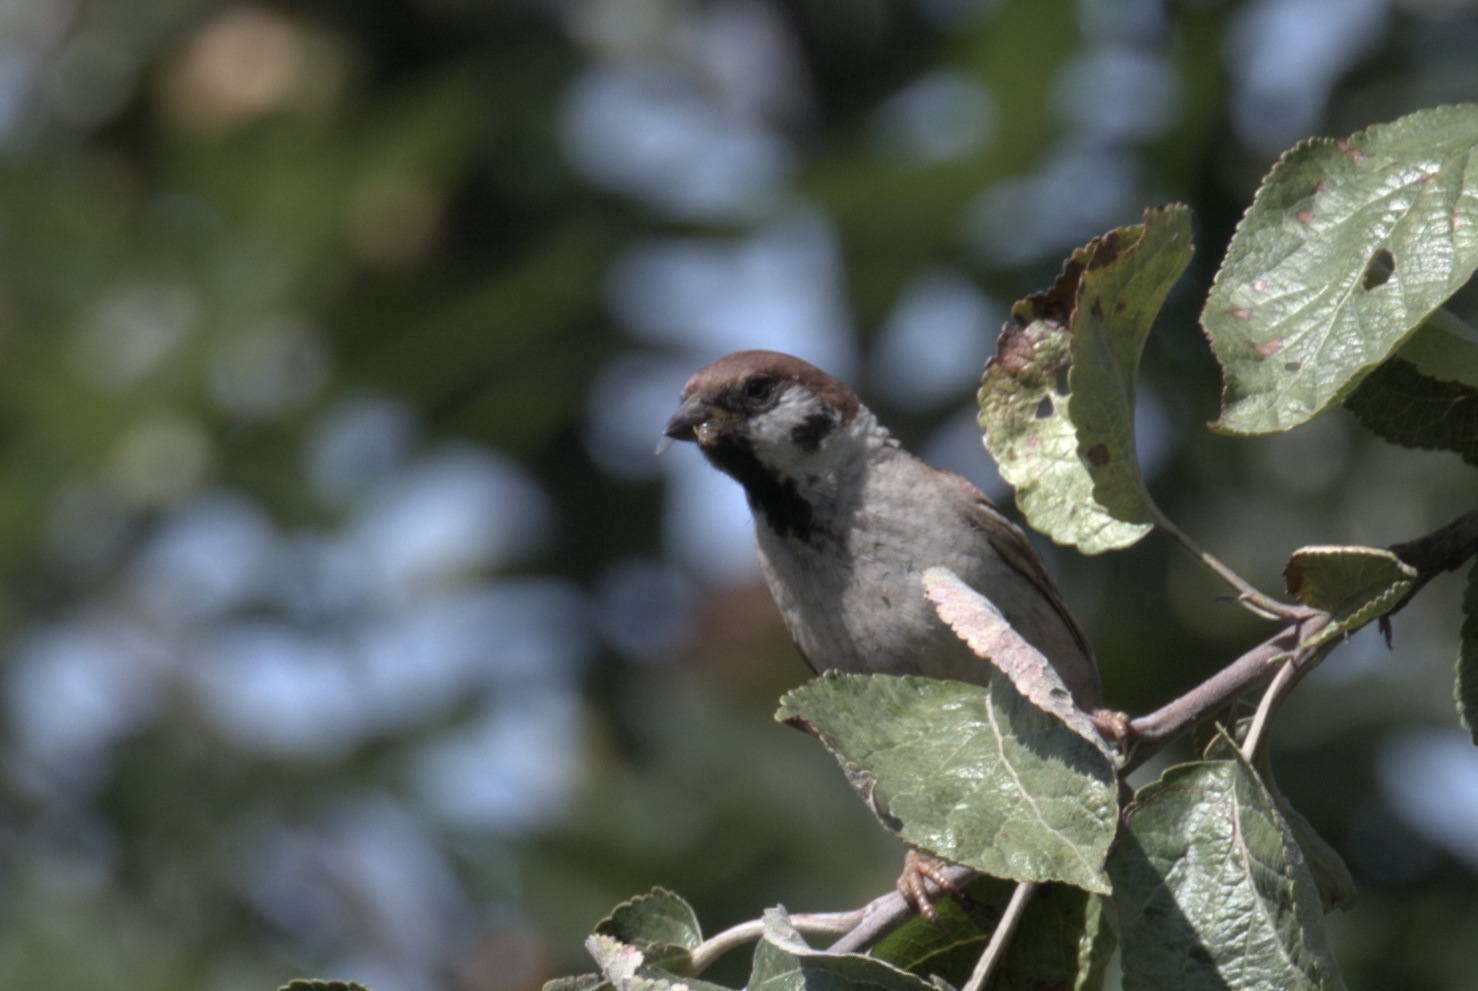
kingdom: Animalia
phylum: Chordata
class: Aves
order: Passeriformes
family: Passeridae
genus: Passer
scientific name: Passer montanus
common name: Eurasian tree sparrow
